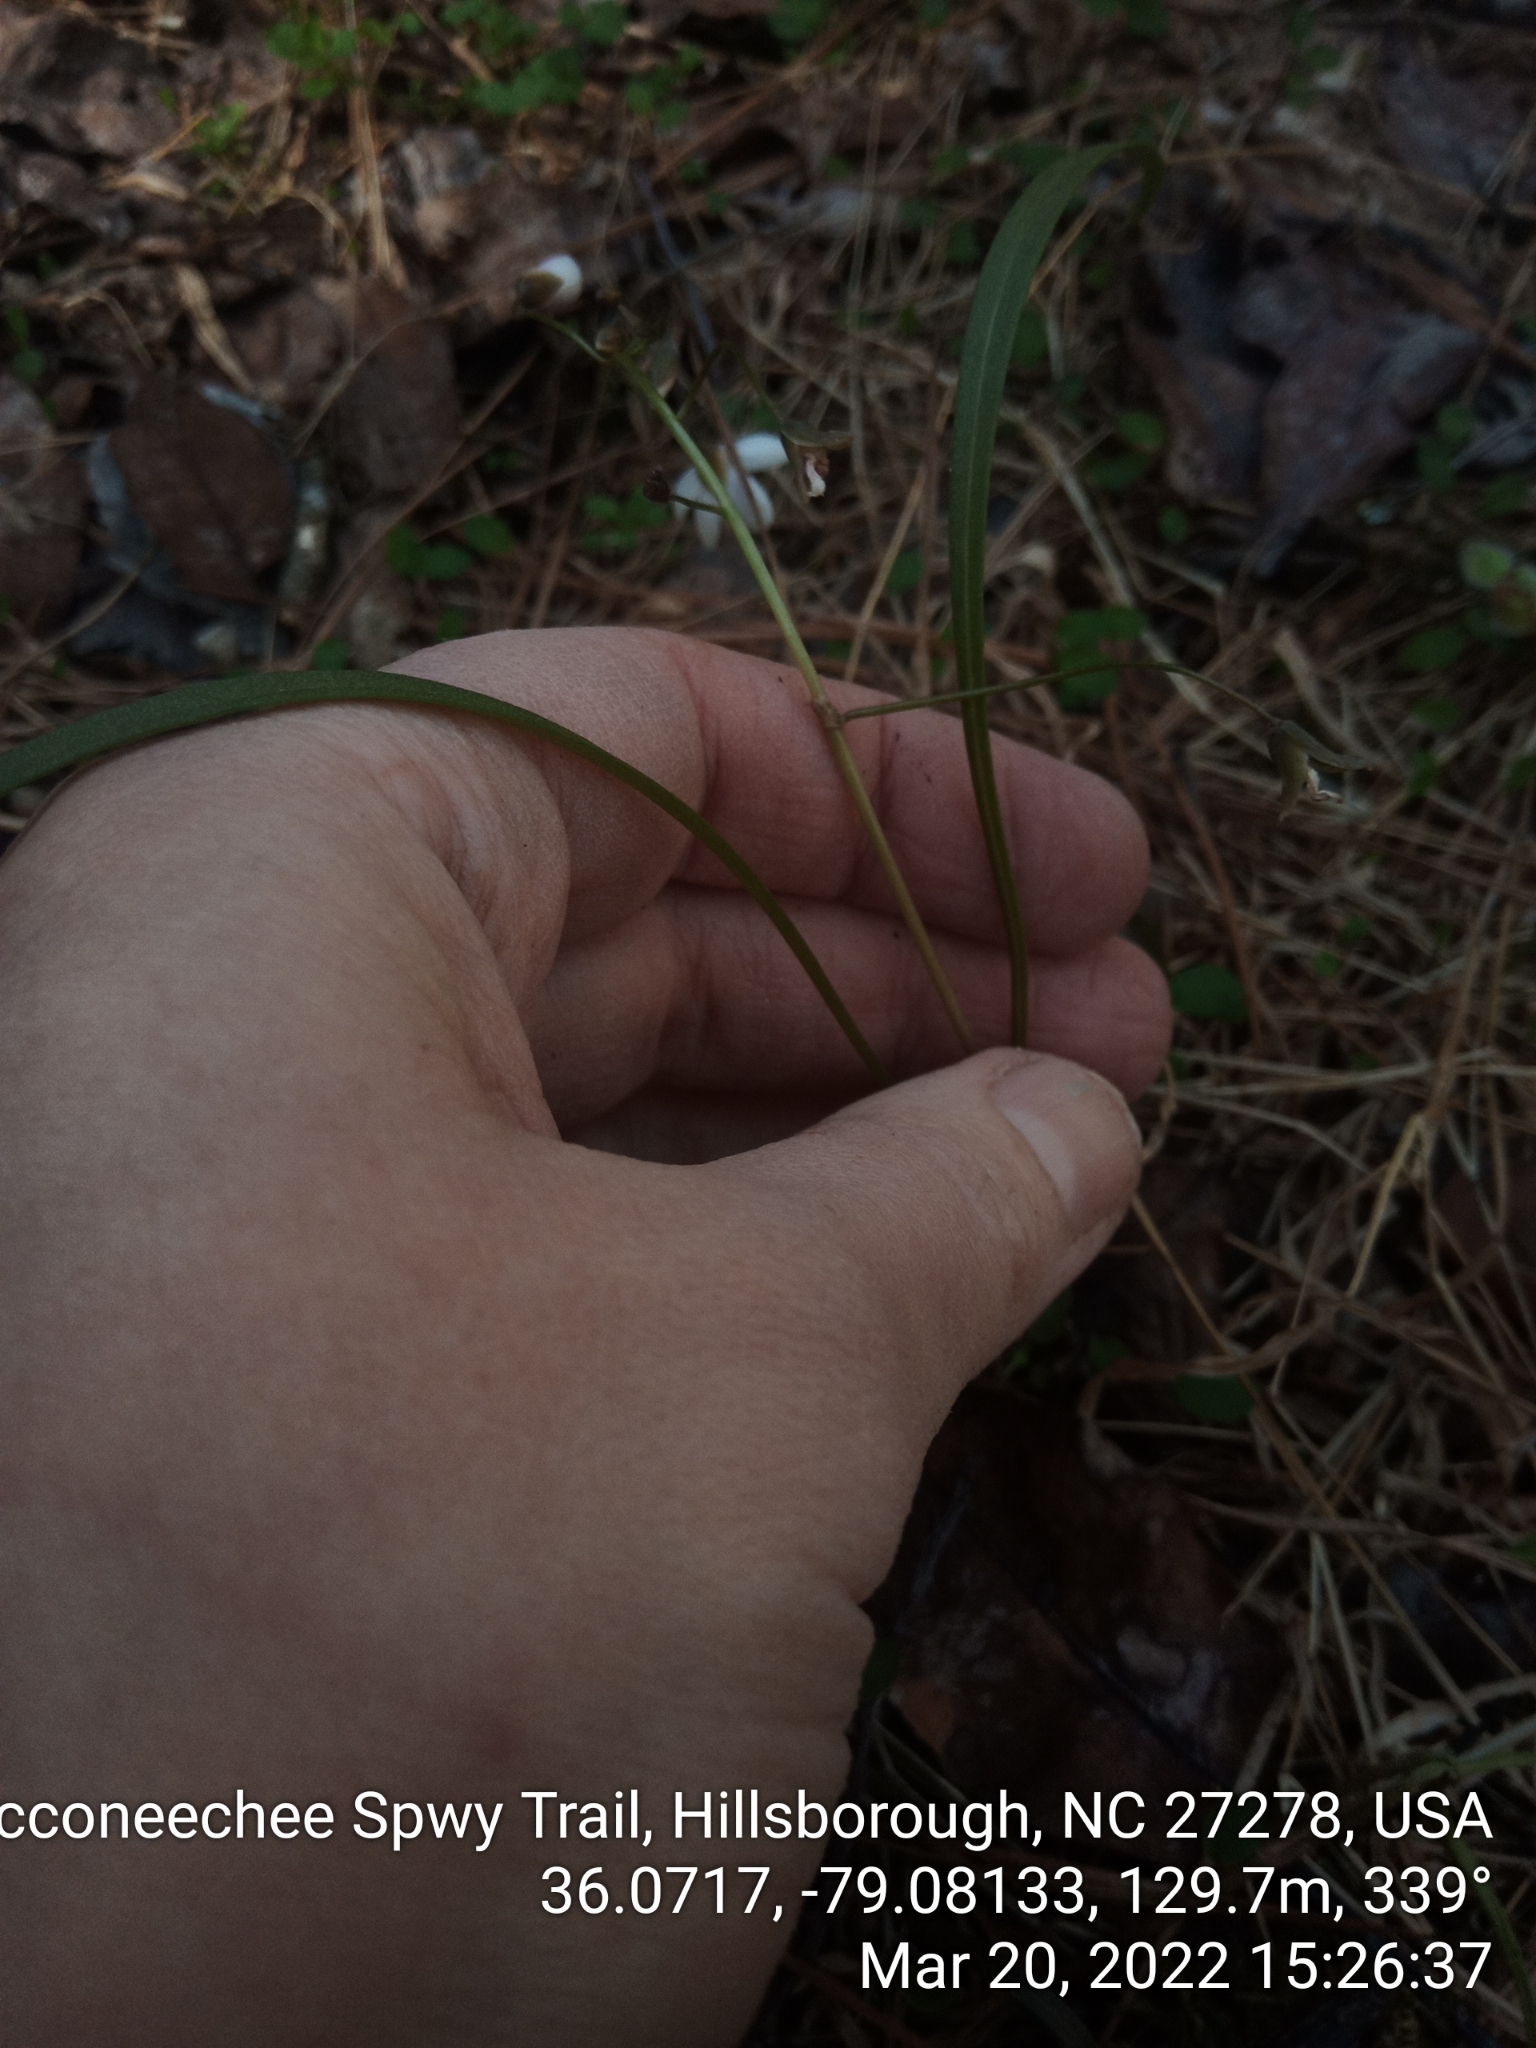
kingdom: Plantae
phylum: Tracheophyta
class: Magnoliopsida
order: Caryophyllales
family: Montiaceae
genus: Claytonia
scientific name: Claytonia virginica
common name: Virginia springbeauty
